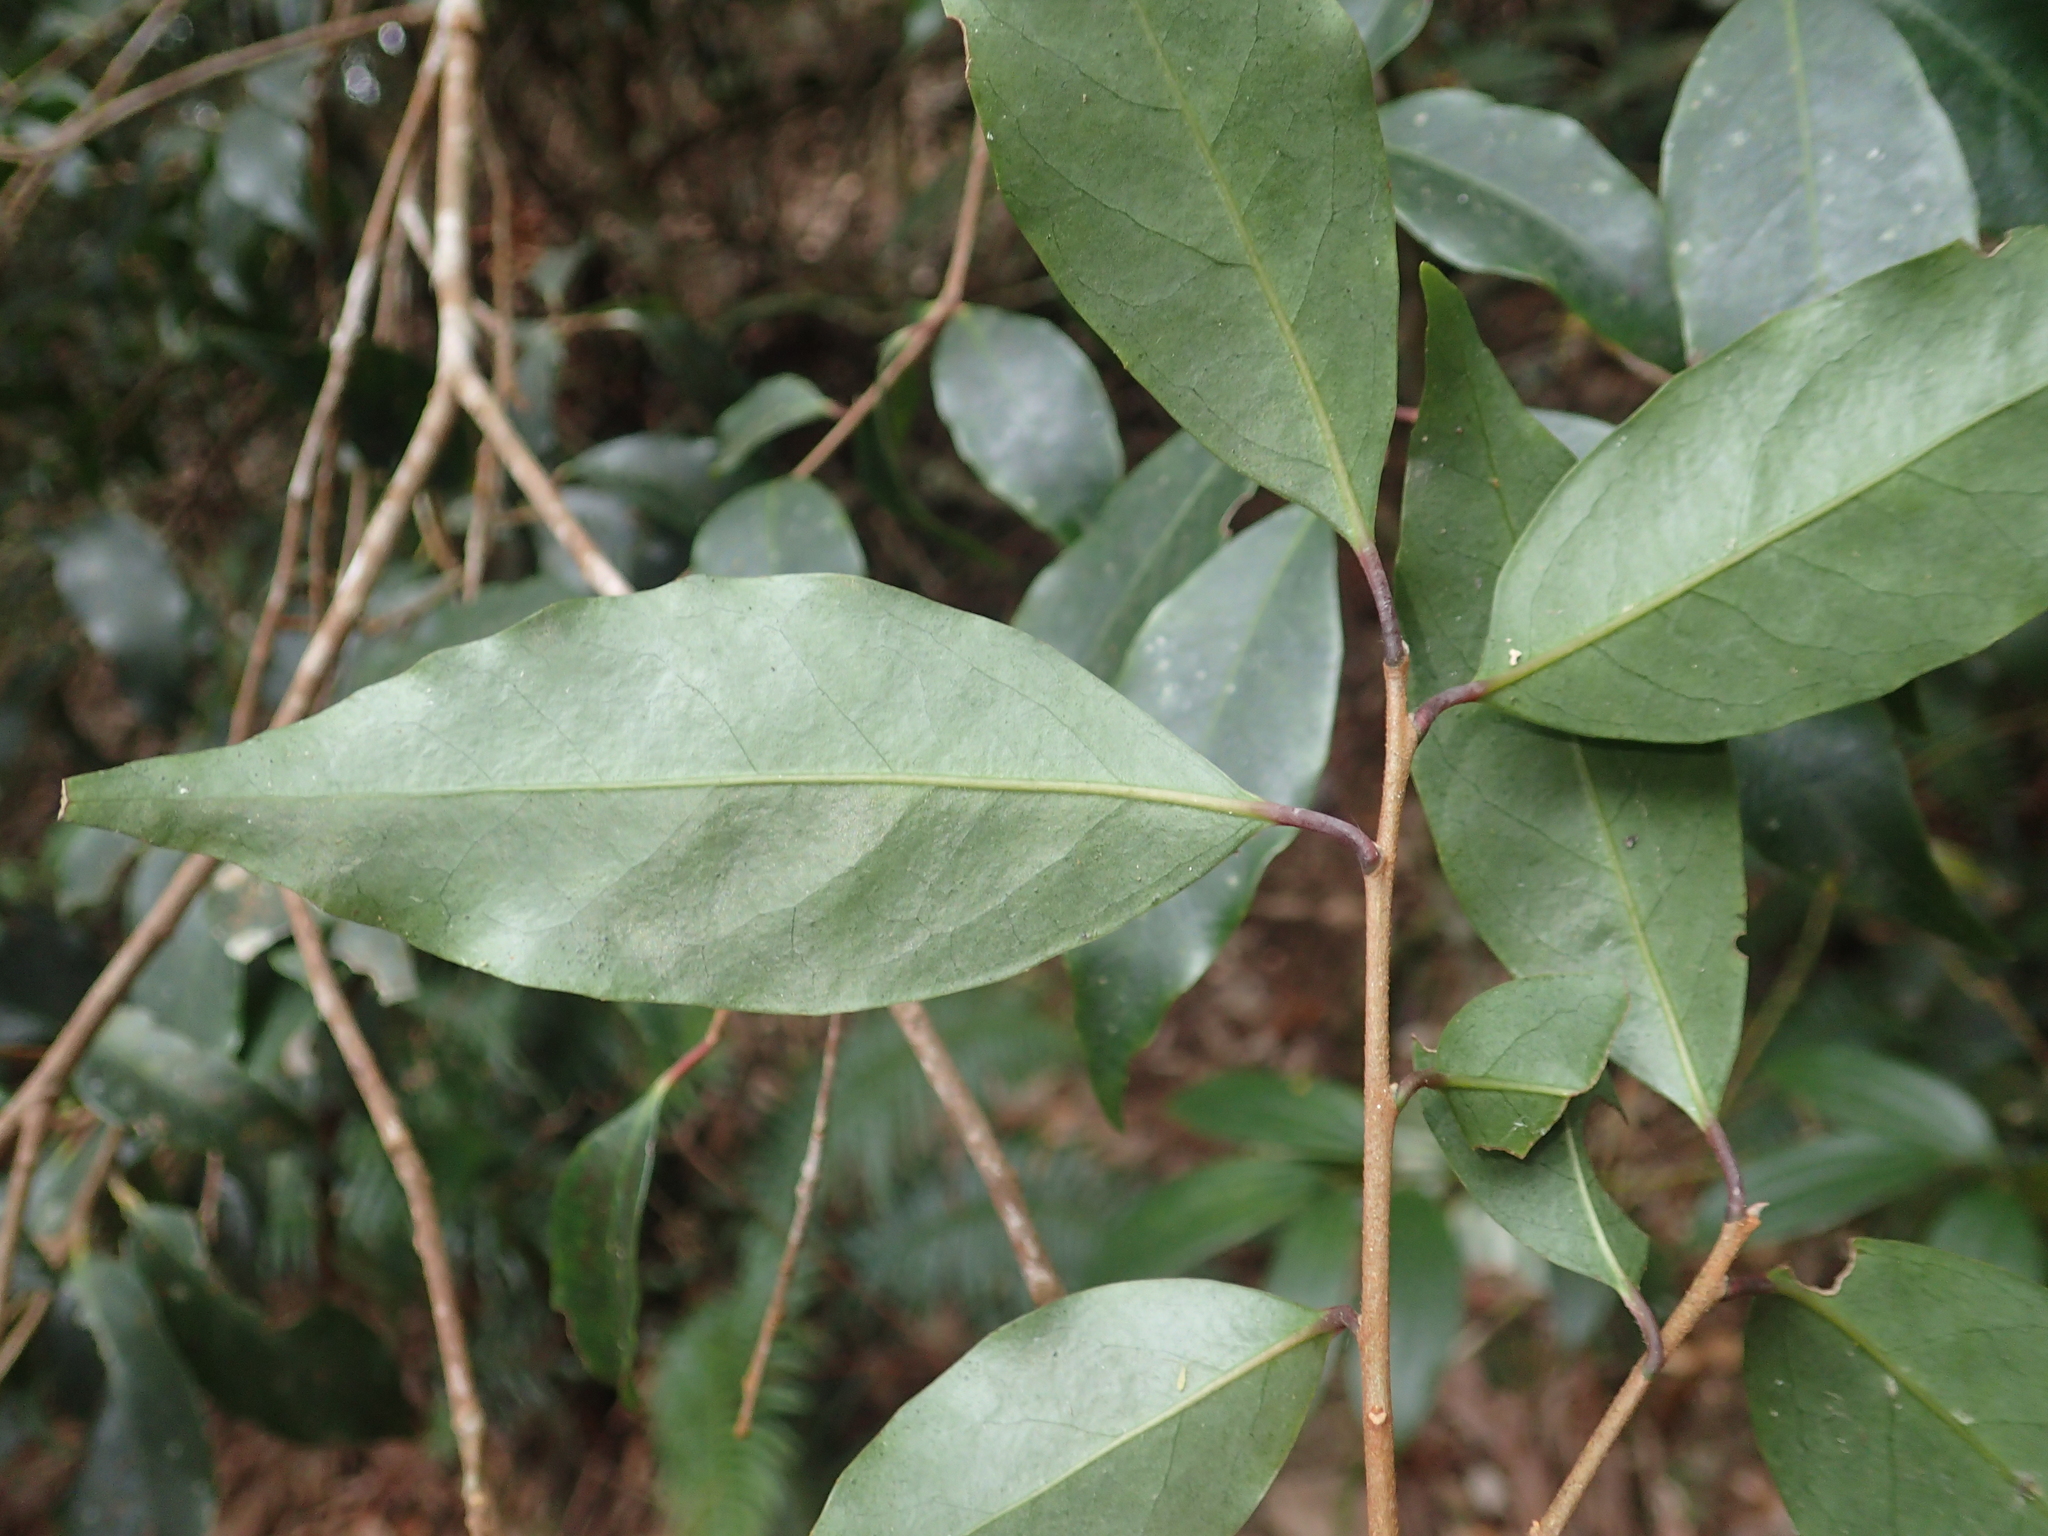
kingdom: Plantae
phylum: Tracheophyta
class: Magnoliopsida
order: Ericales
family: Symplocaceae
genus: Symplocos
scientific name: Symplocos sonoharae
